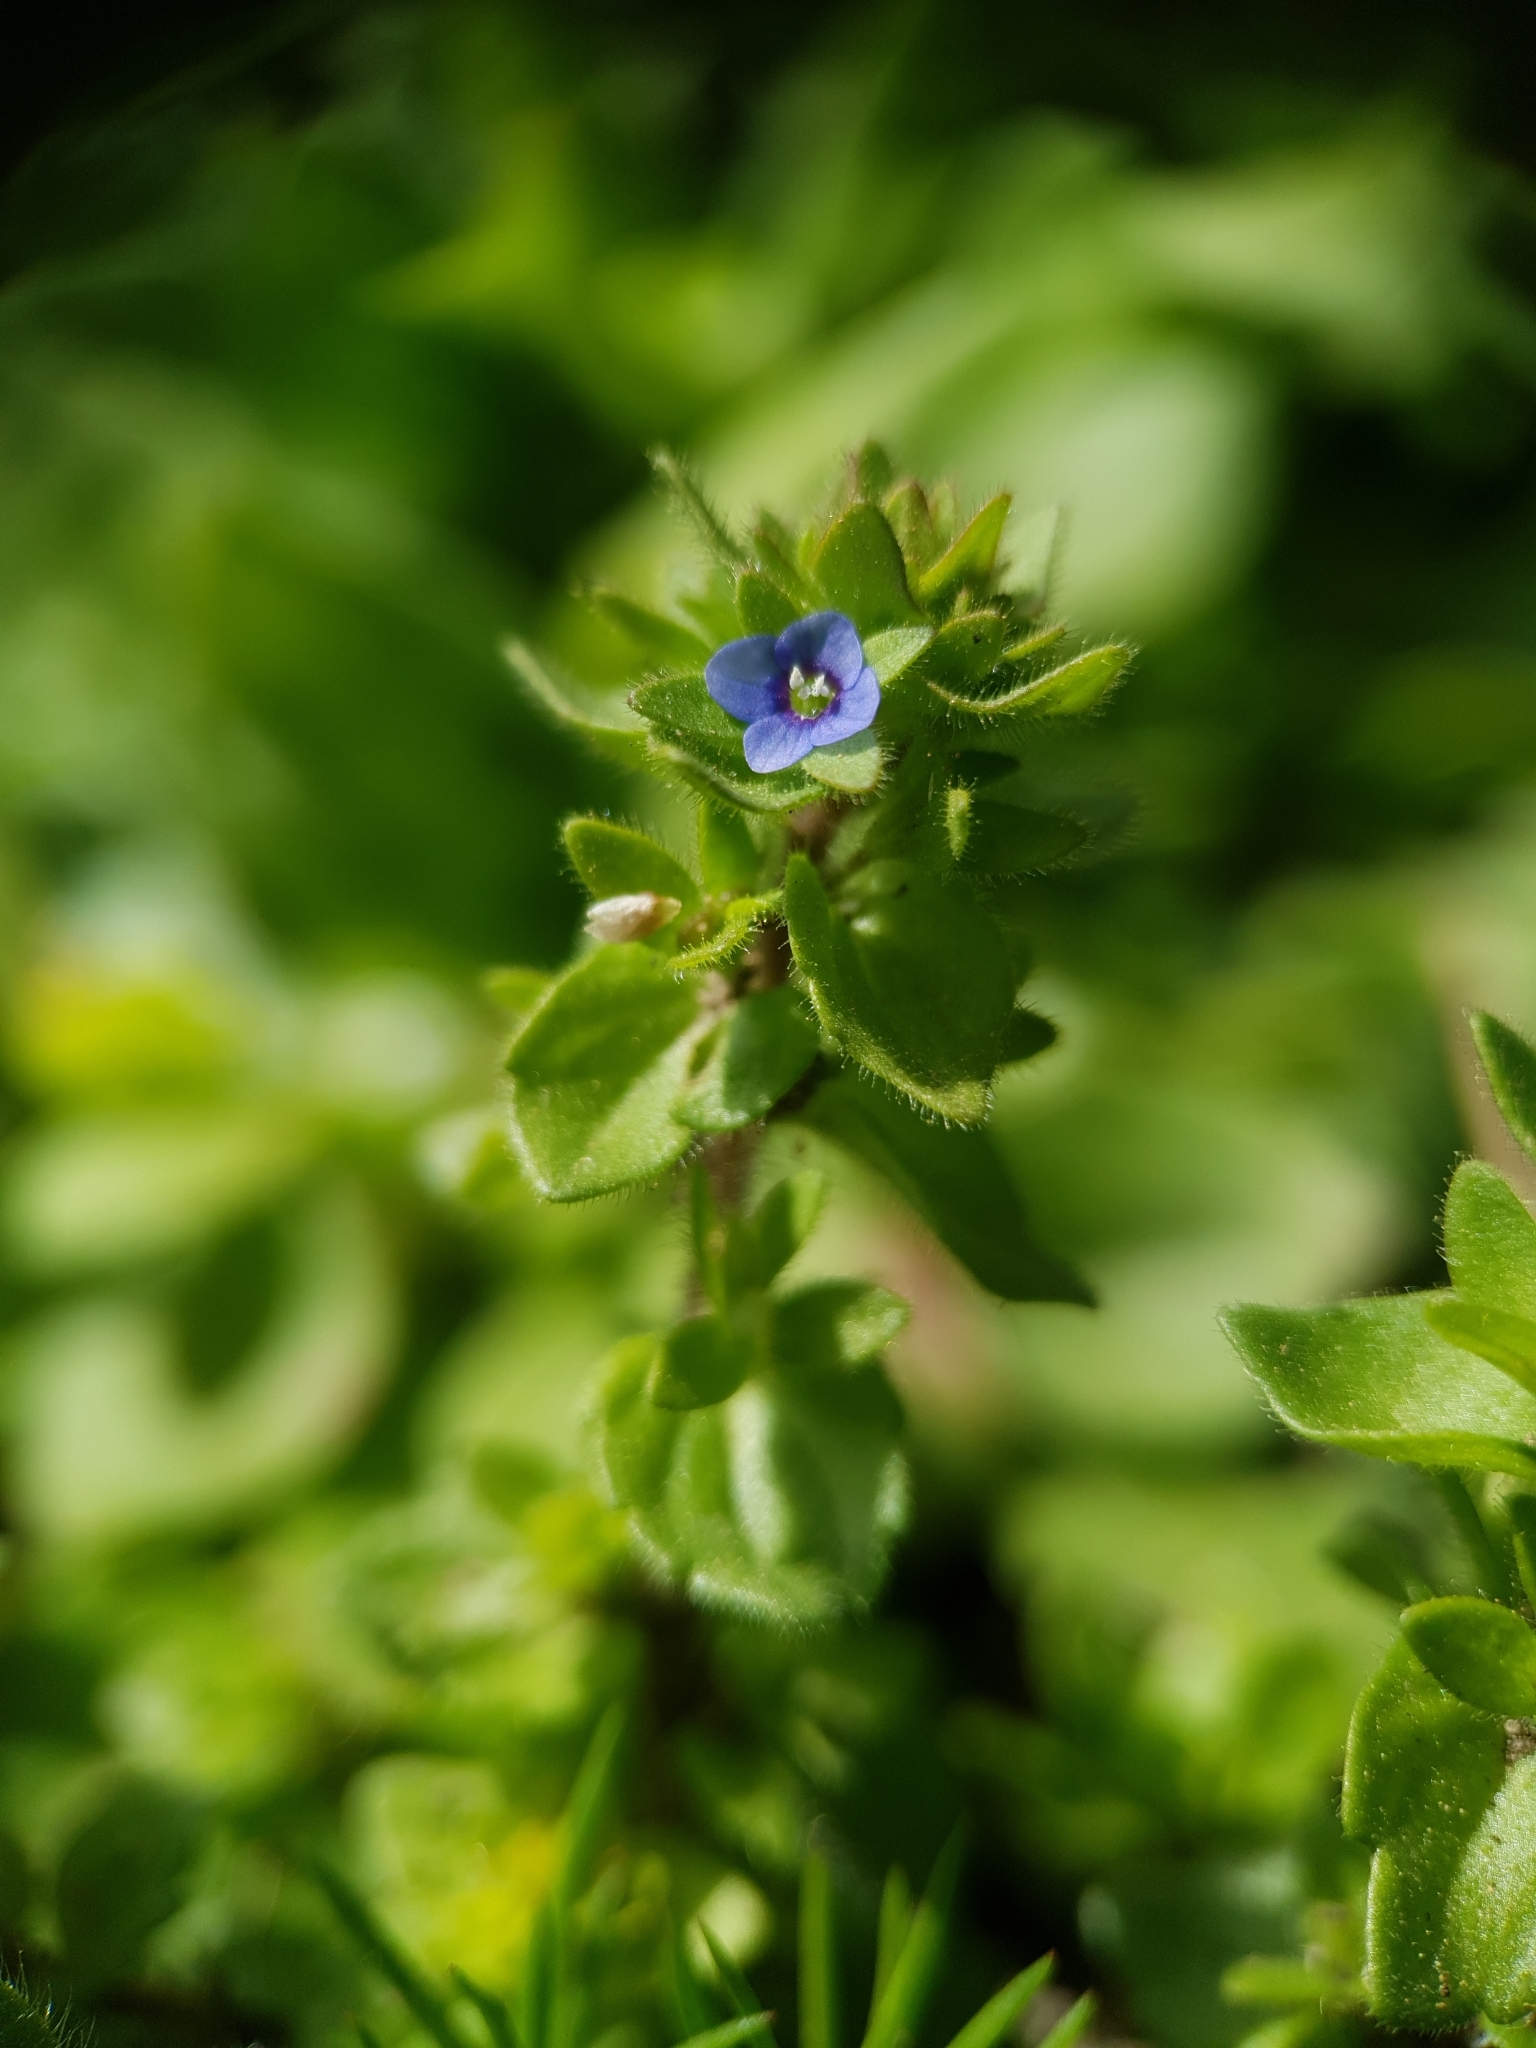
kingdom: Plantae
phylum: Tracheophyta
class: Magnoliopsida
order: Lamiales
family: Plantaginaceae
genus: Veronica
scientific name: Veronica arvensis
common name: Corn speedwell
